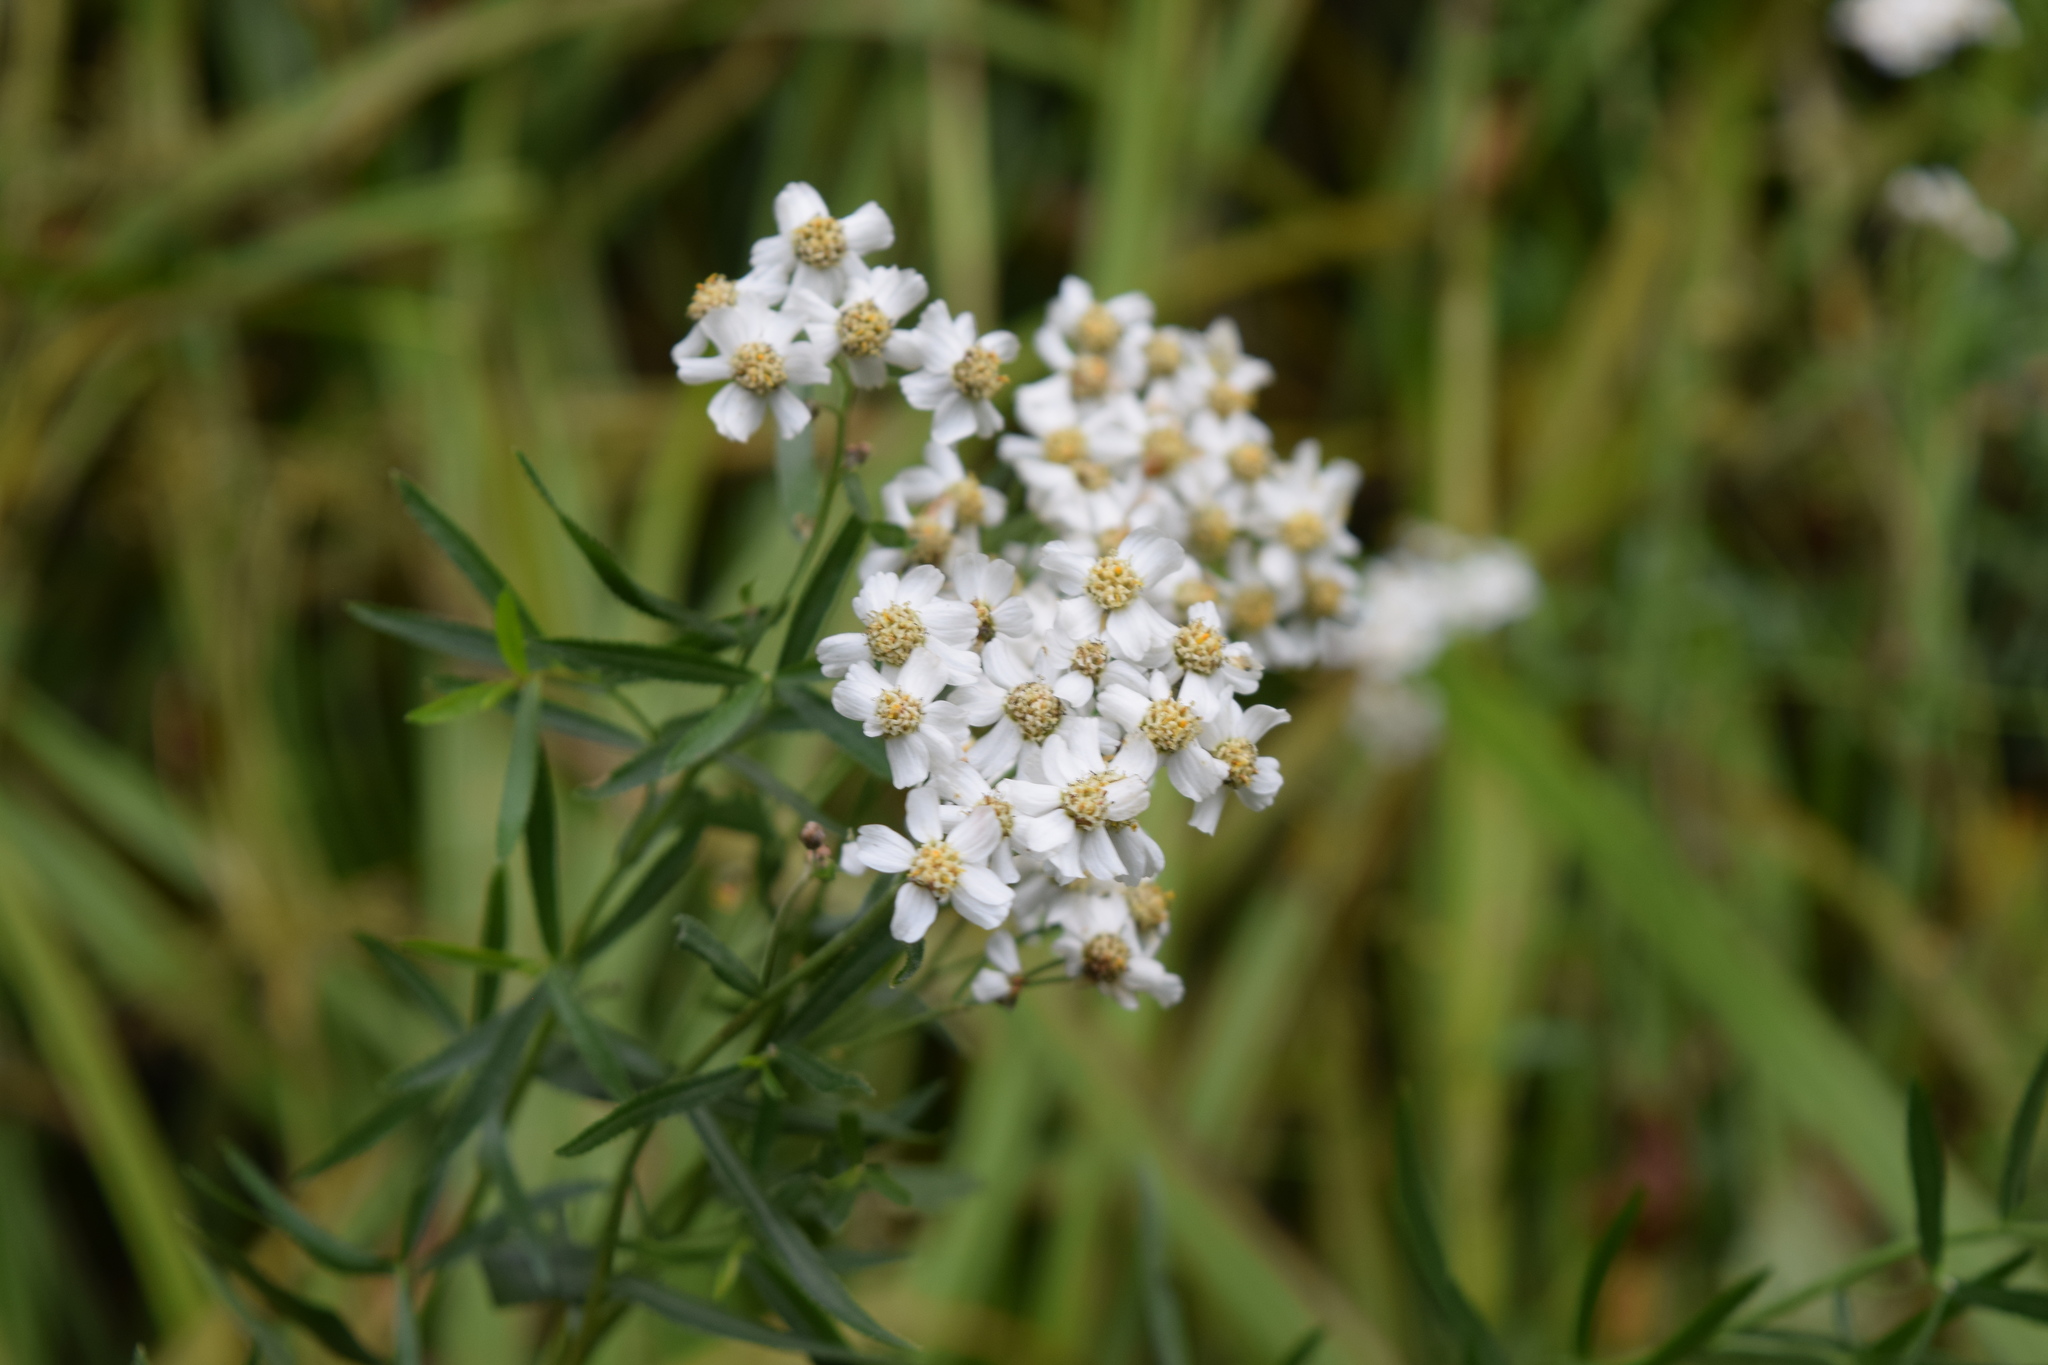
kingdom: Plantae
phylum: Tracheophyta
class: Magnoliopsida
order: Asterales
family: Asteraceae
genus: Achillea
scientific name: Achillea salicifolia
